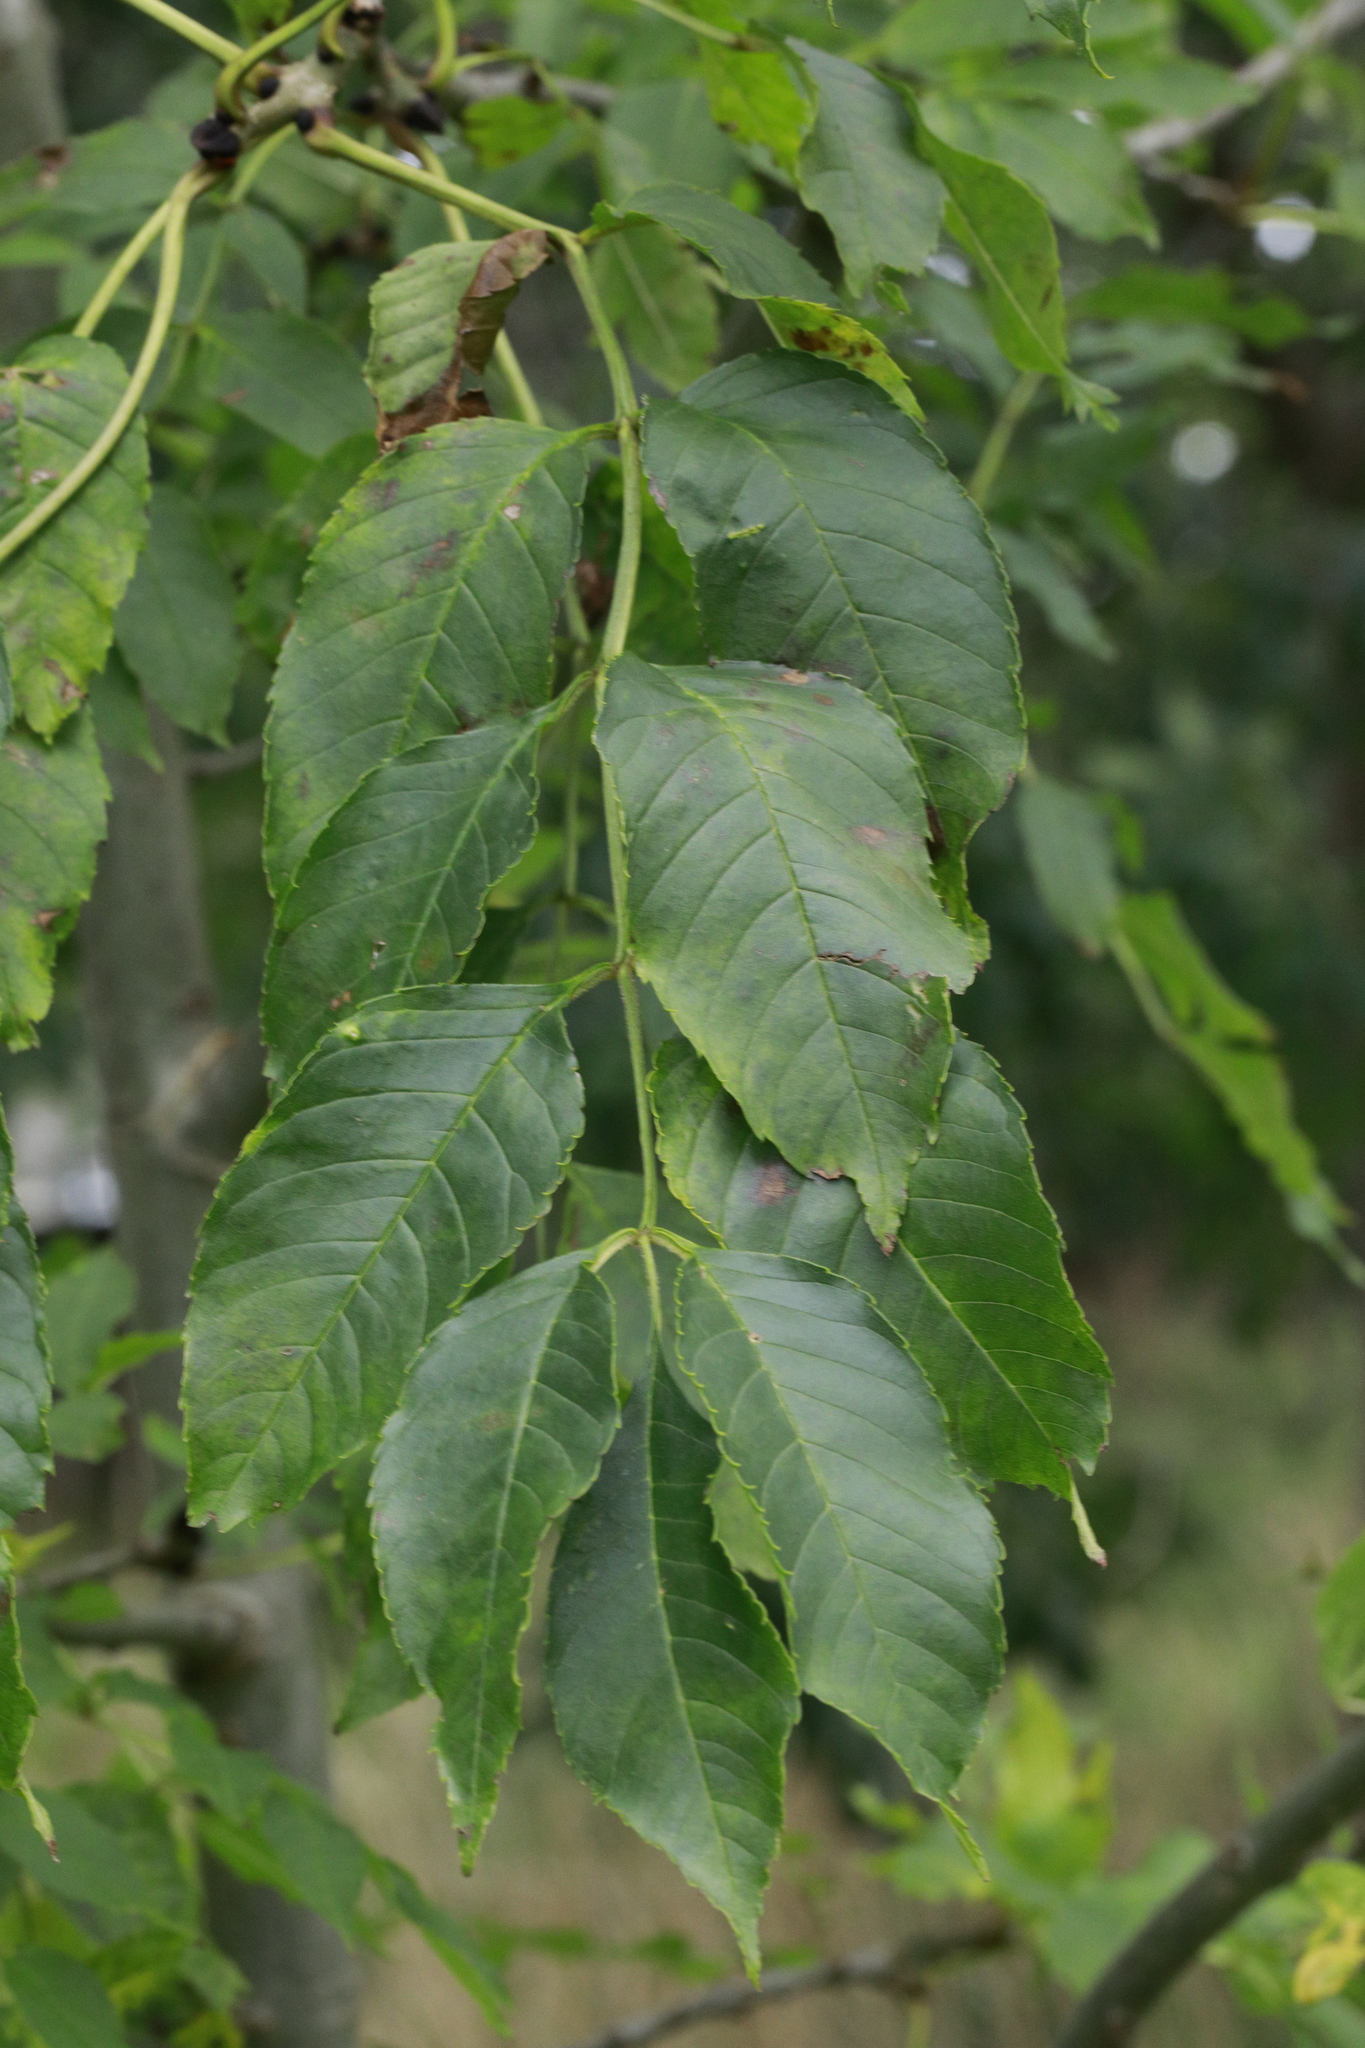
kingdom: Plantae
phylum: Tracheophyta
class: Magnoliopsida
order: Lamiales
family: Oleaceae
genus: Fraxinus
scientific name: Fraxinus excelsior
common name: European ash
